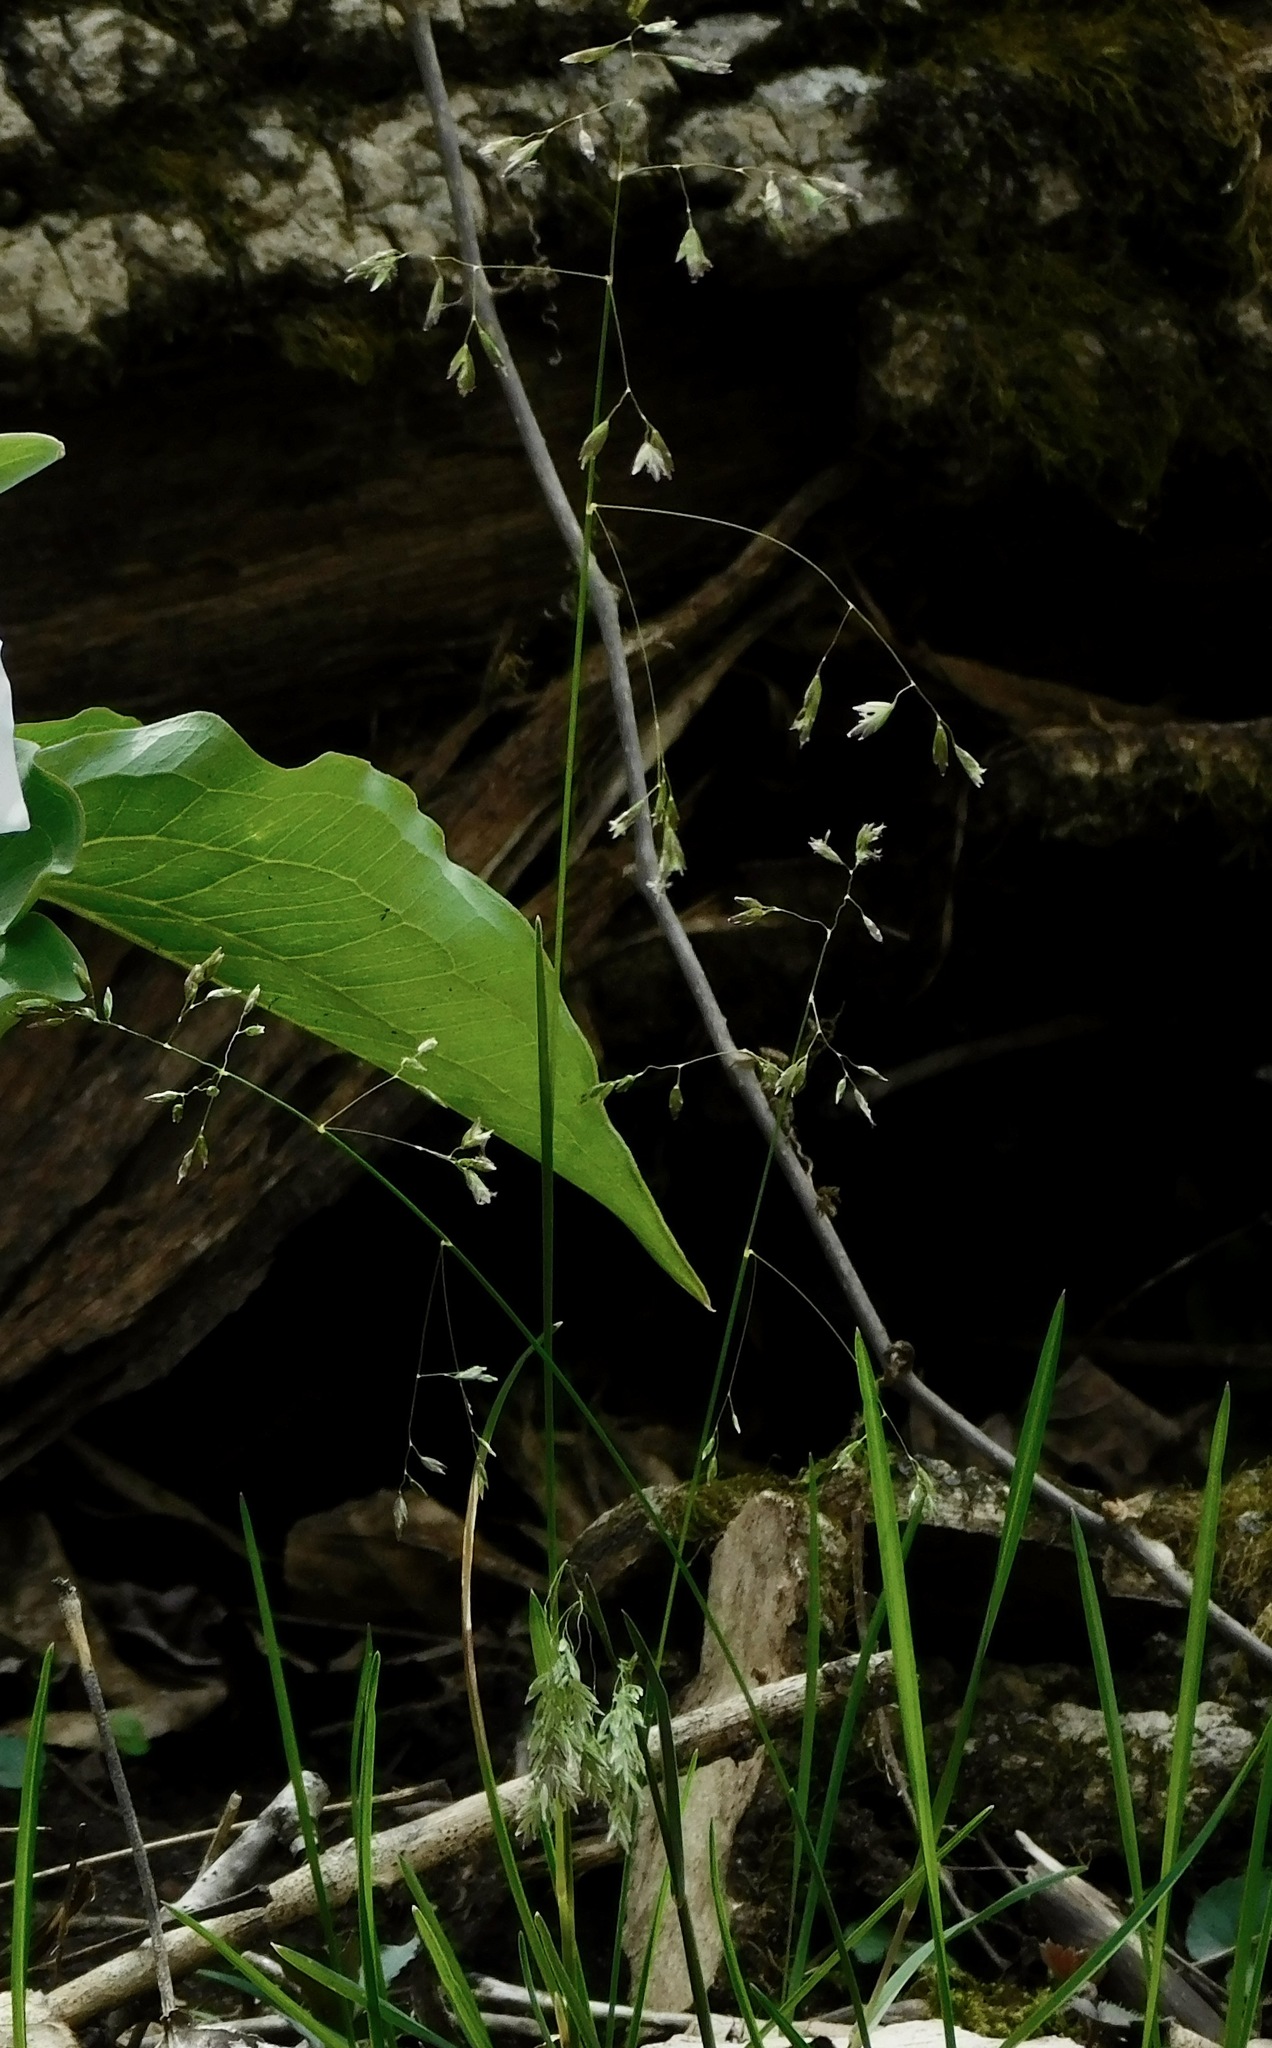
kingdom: Plantae
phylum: Tracheophyta
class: Liliopsida
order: Poales
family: Poaceae
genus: Poa
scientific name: Poa cuspidata
